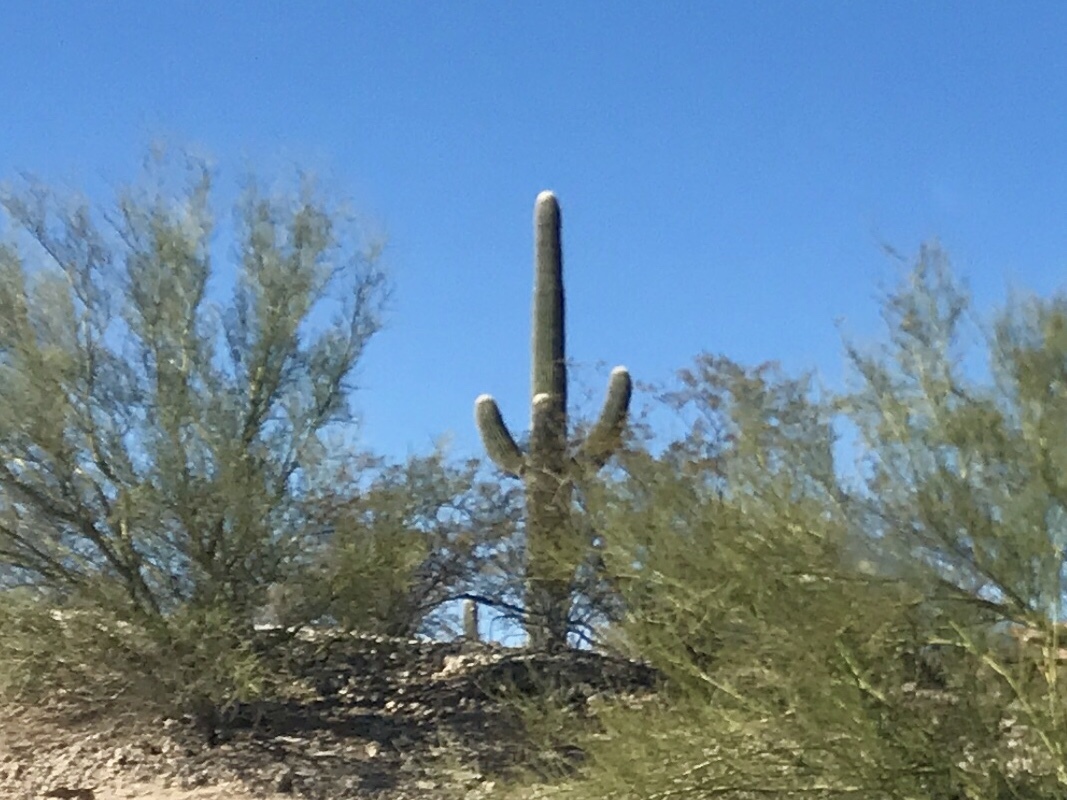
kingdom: Plantae
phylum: Tracheophyta
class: Magnoliopsida
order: Caryophyllales
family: Cactaceae
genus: Carnegiea
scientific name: Carnegiea gigantea
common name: Saguaro
